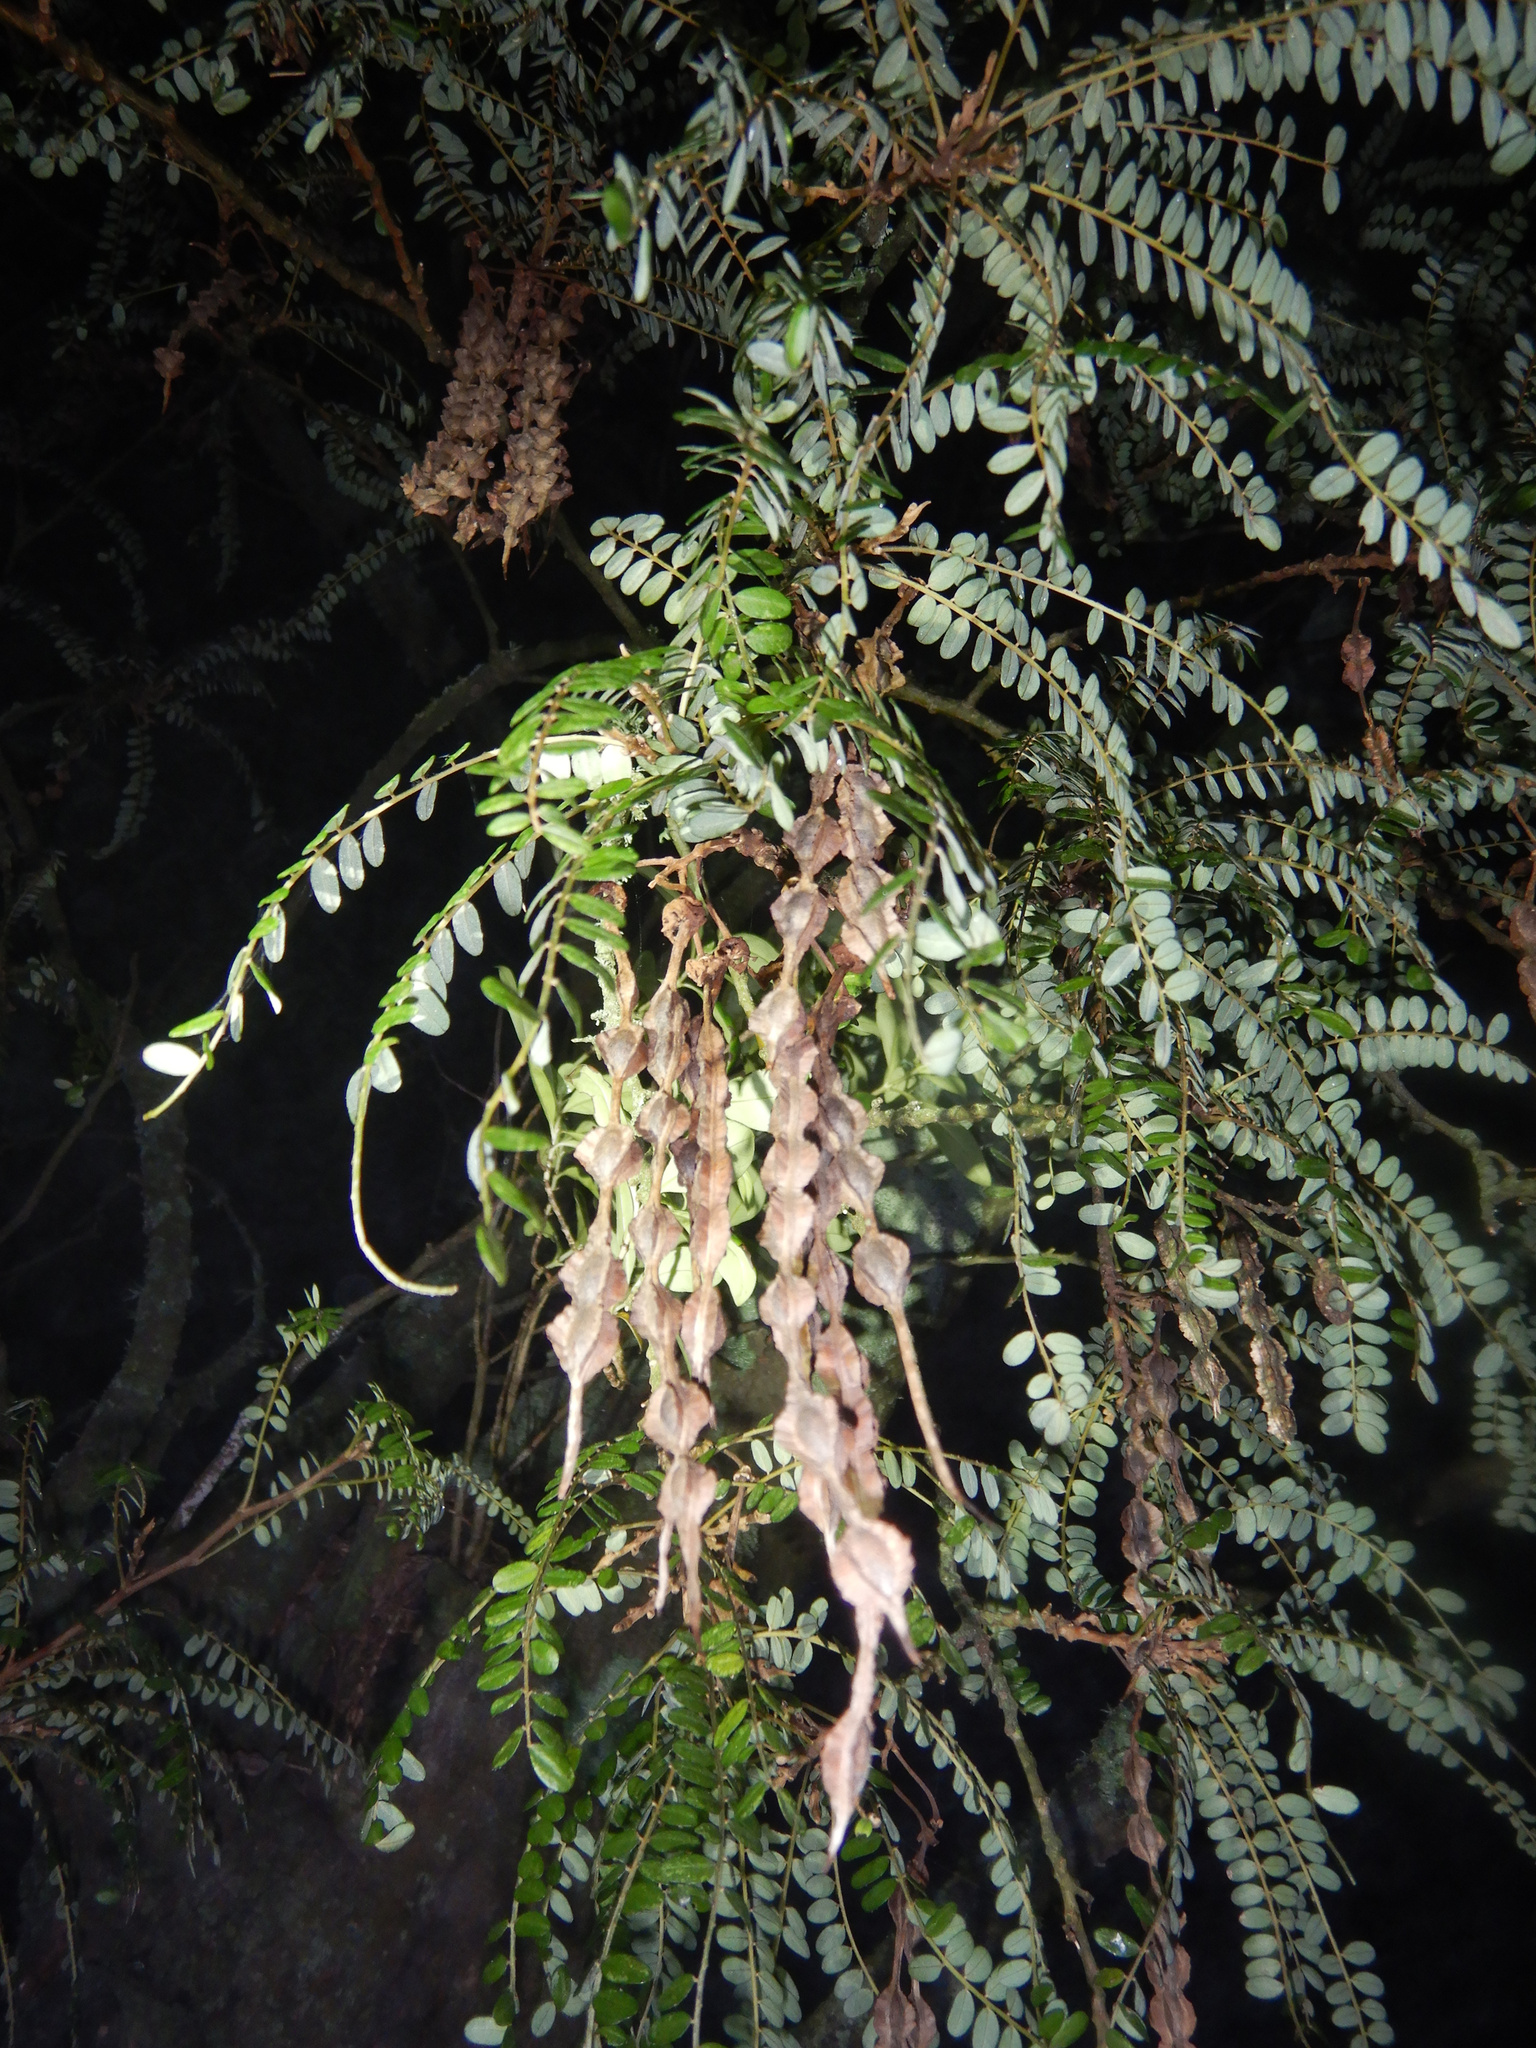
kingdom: Plantae
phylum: Tracheophyta
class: Magnoliopsida
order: Fabales
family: Fabaceae
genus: Sophora
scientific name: Sophora microphylla
